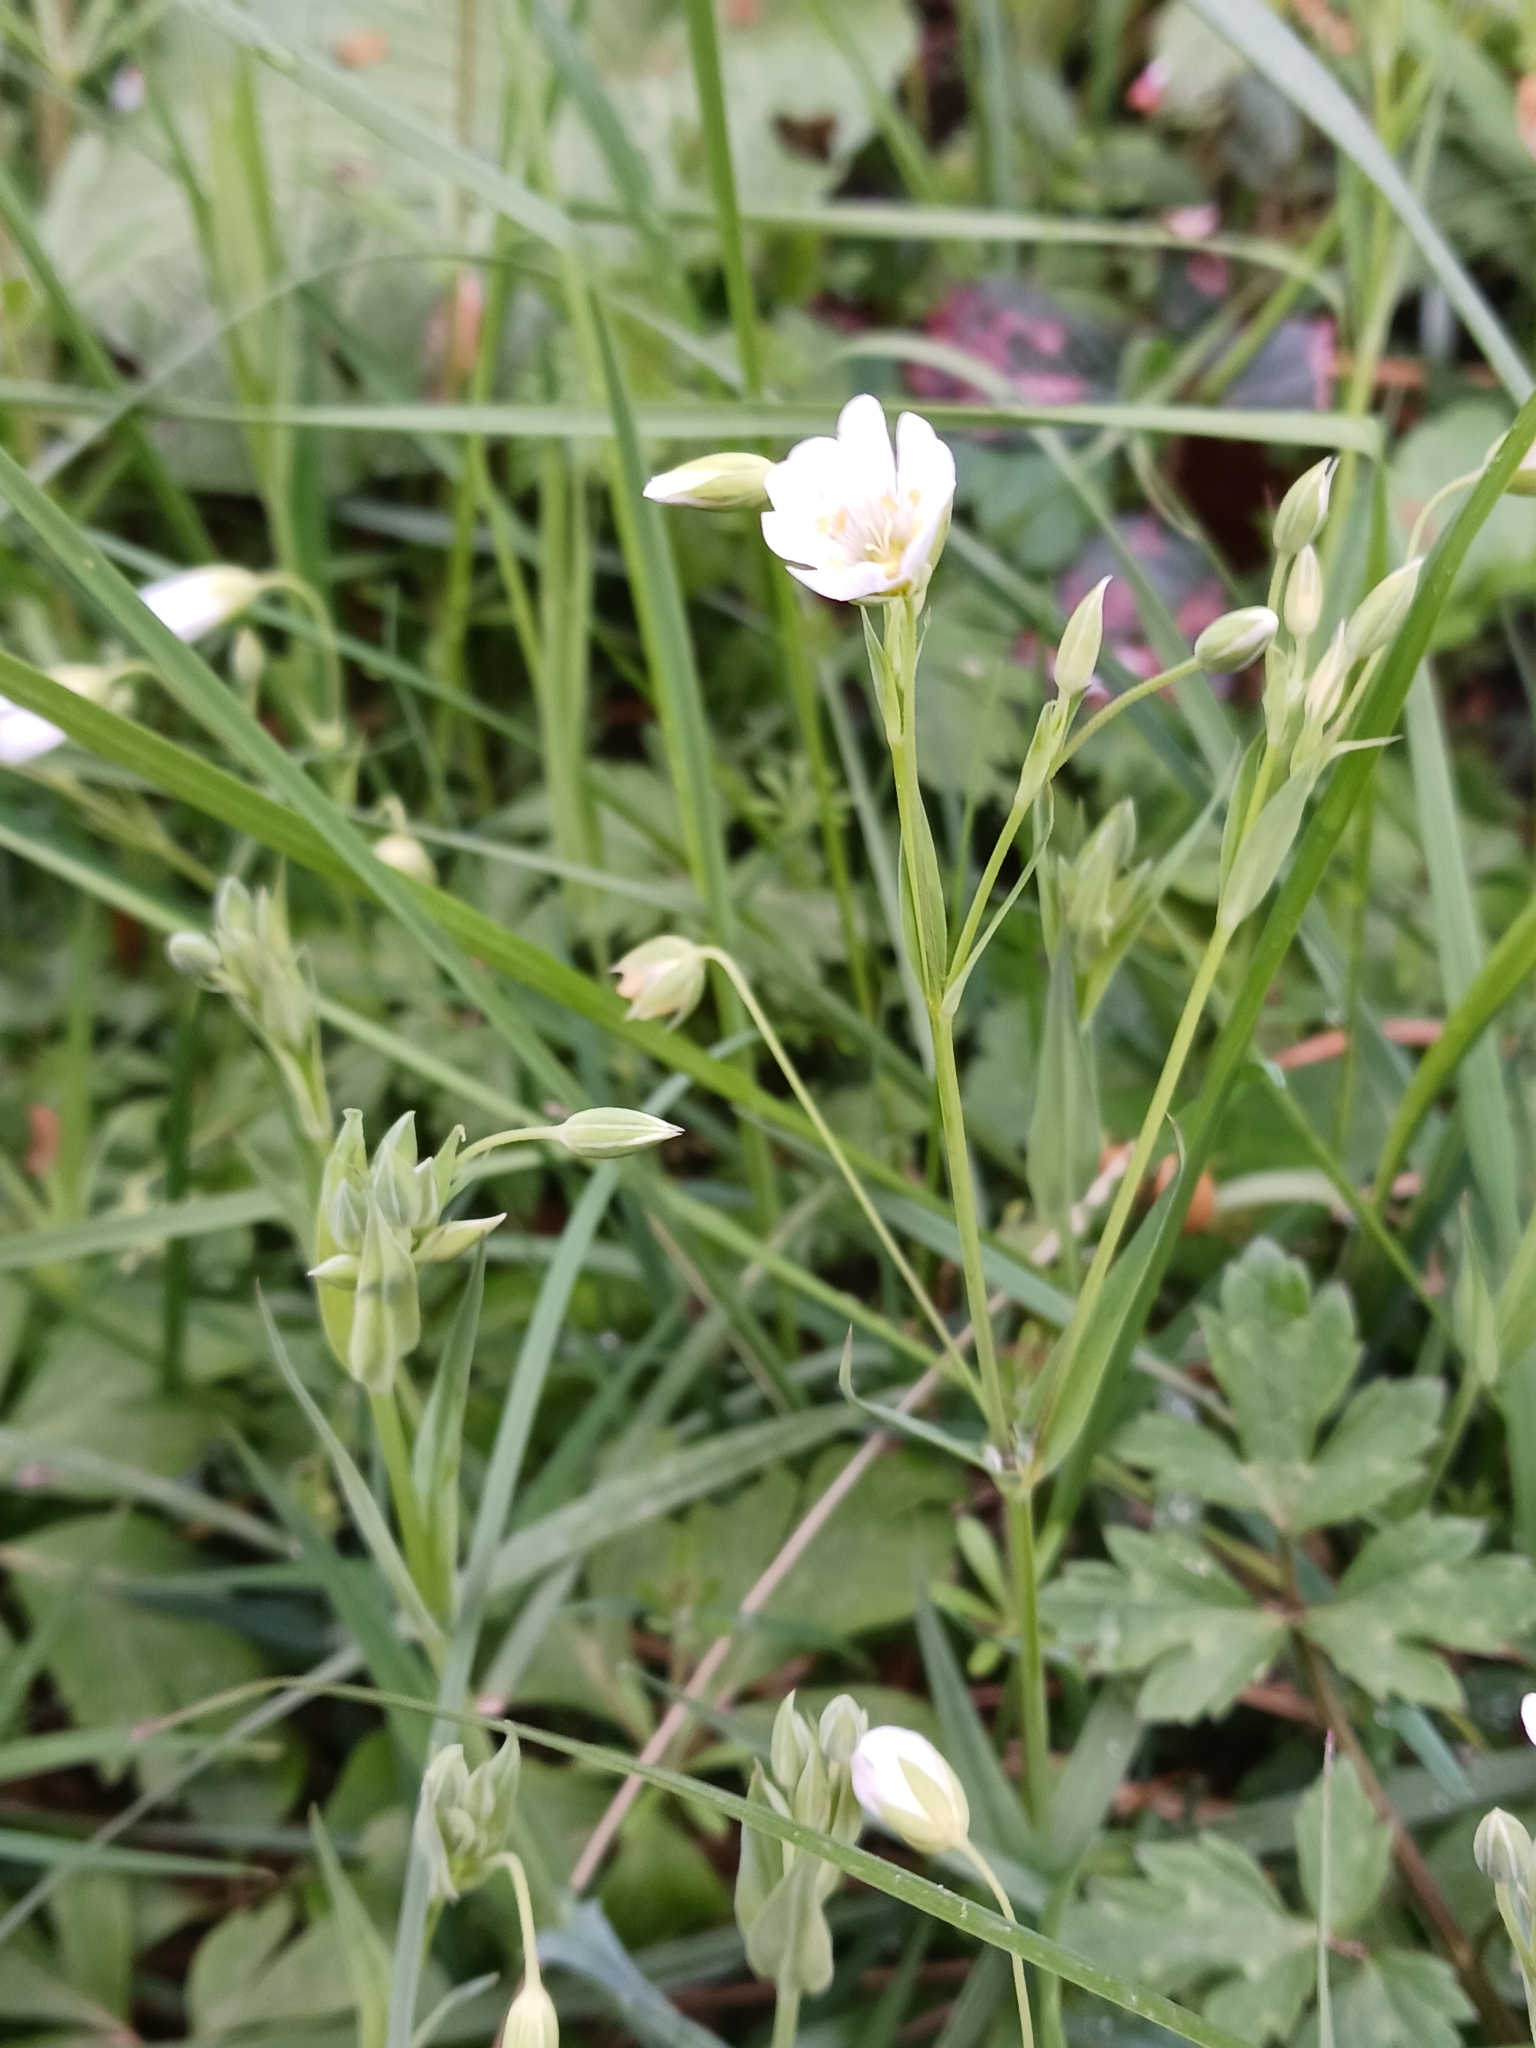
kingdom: Plantae
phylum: Tracheophyta
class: Magnoliopsida
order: Caryophyllales
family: Caryophyllaceae
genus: Rabelera
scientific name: Rabelera holostea
